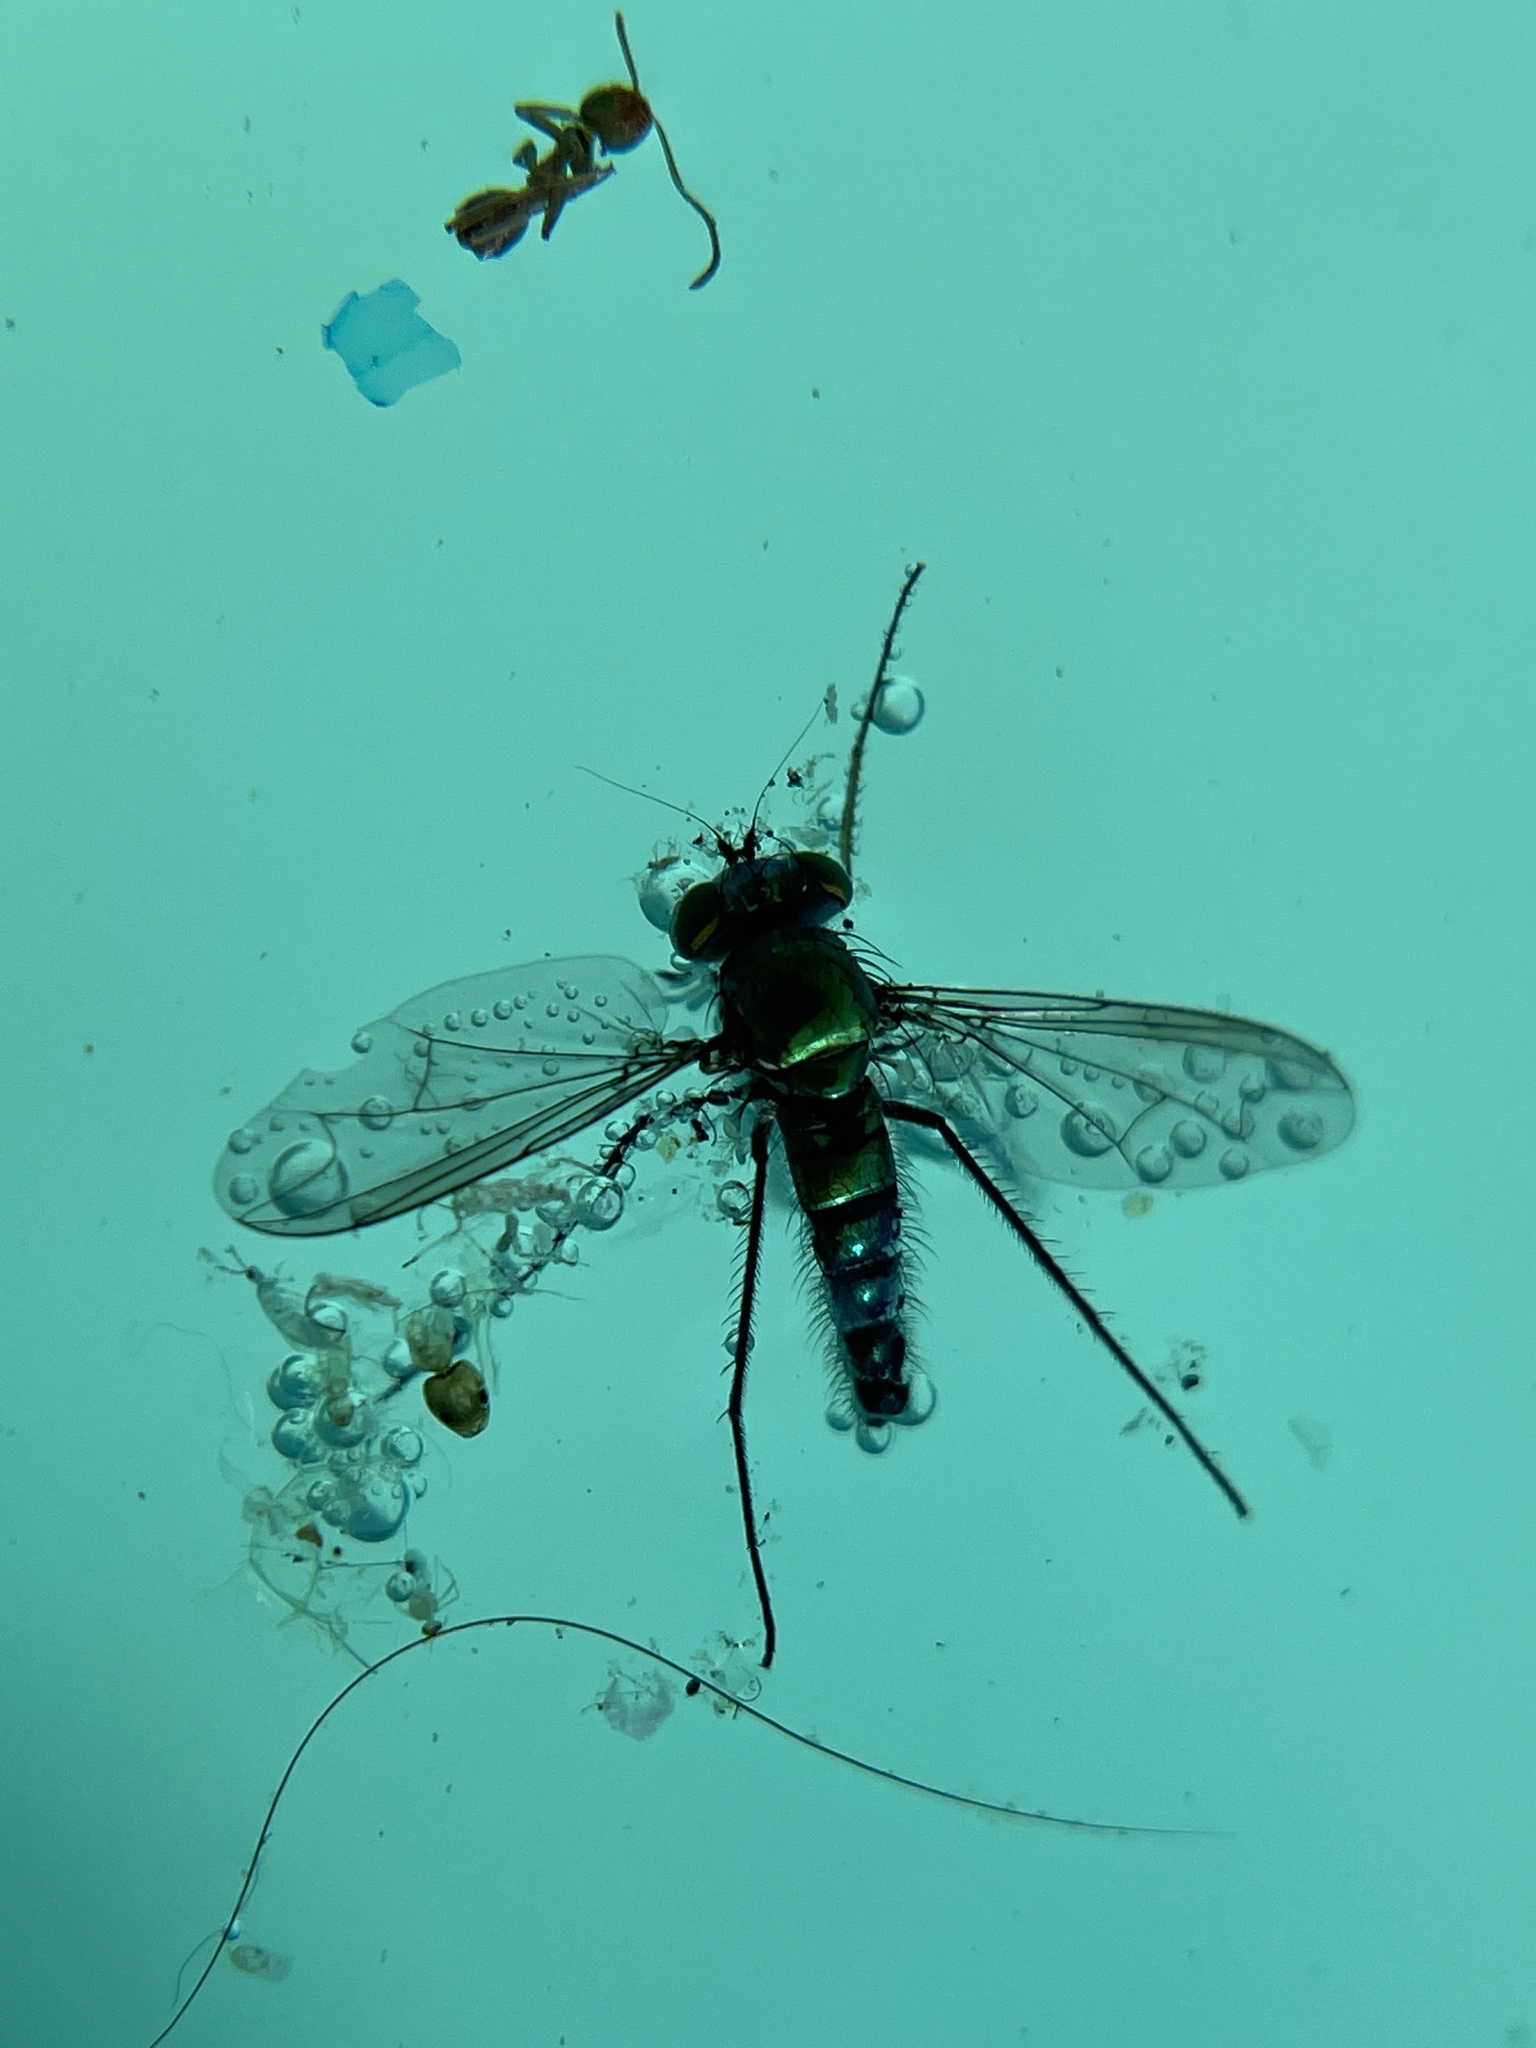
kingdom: Animalia
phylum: Arthropoda
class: Insecta
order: Diptera
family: Dolichopodidae
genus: Condylostylus
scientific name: Condylostylus longicornis
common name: Long-legged fly
